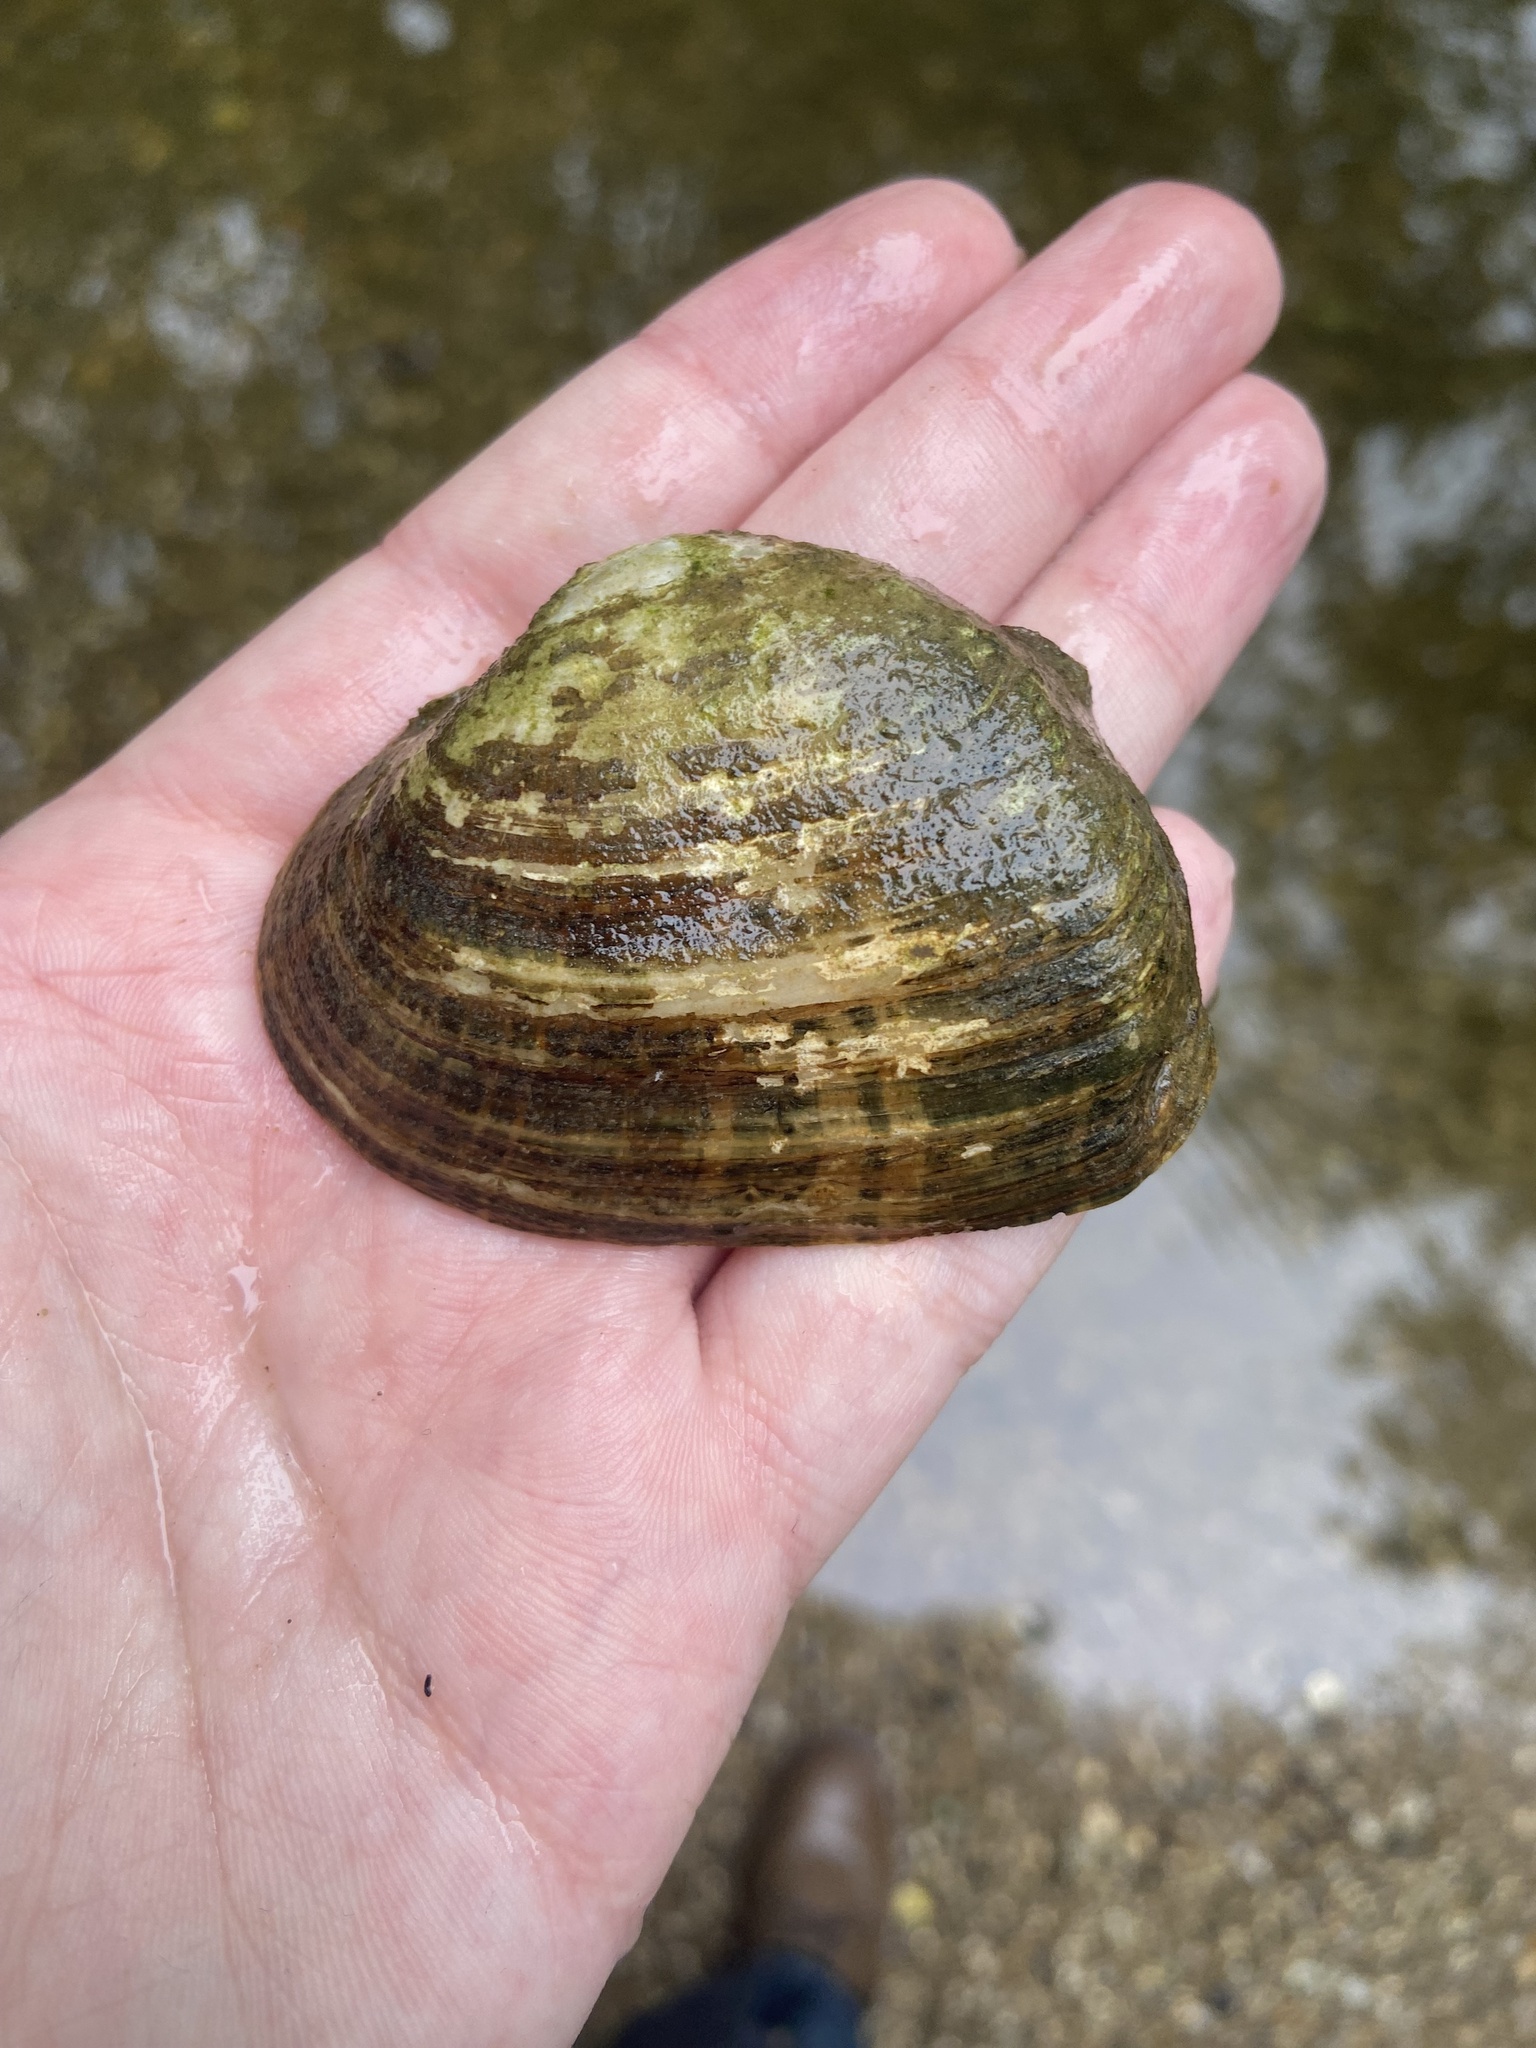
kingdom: Animalia
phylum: Mollusca
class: Bivalvia
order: Unionida
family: Unionidae
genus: Alasmidonta
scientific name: Alasmidonta marginata
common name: Elktoe
